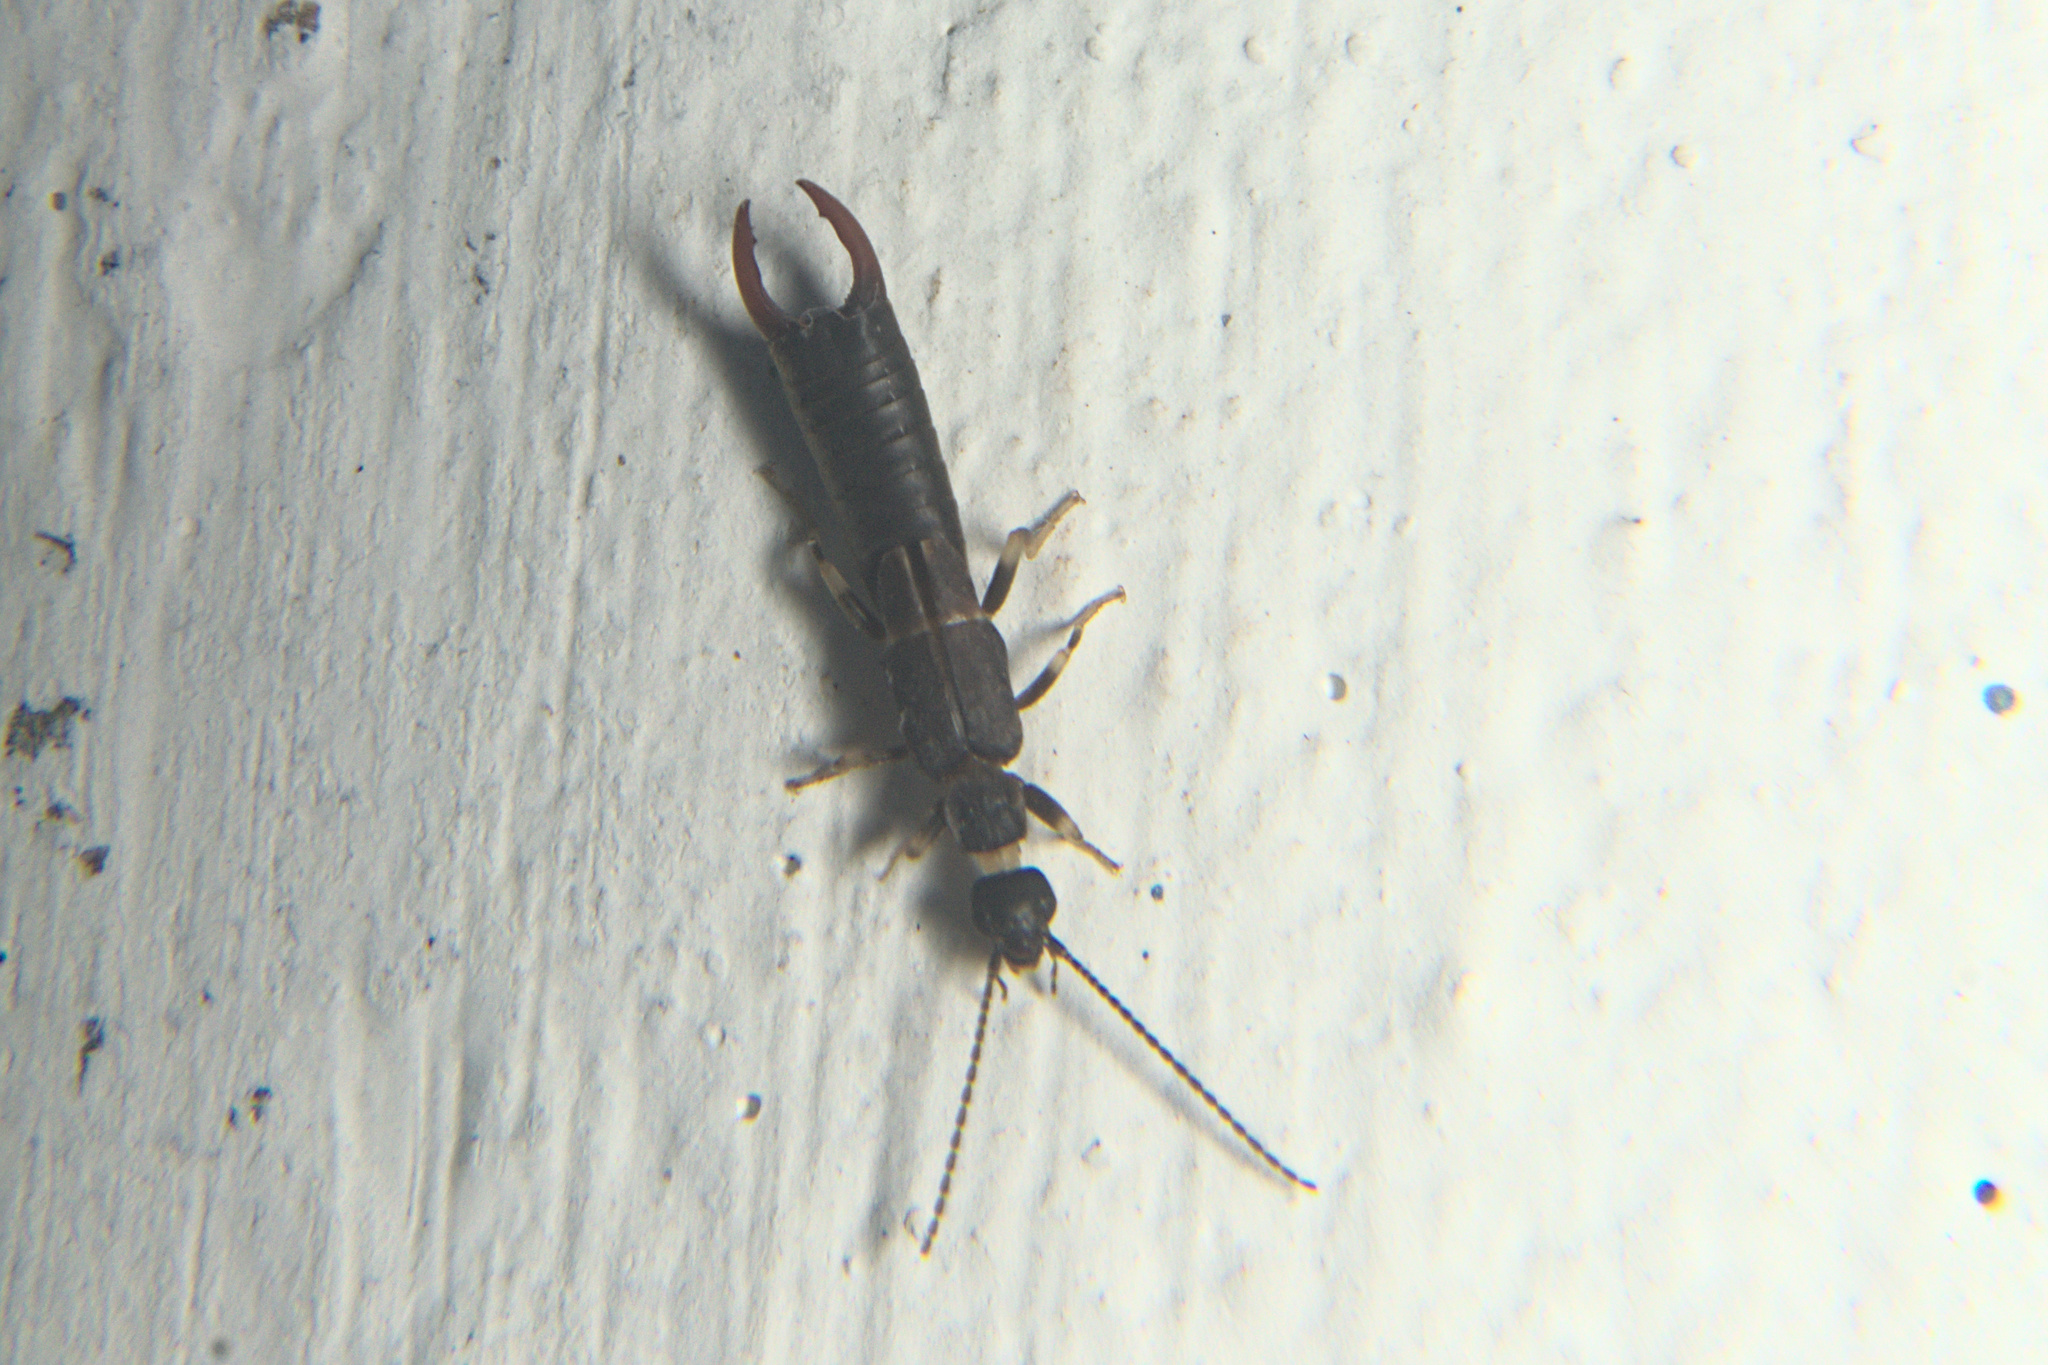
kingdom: Animalia
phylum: Arthropoda
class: Insecta
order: Dermaptera
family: Labiduridae
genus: Nala
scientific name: Nala lividipes
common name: Earwig
